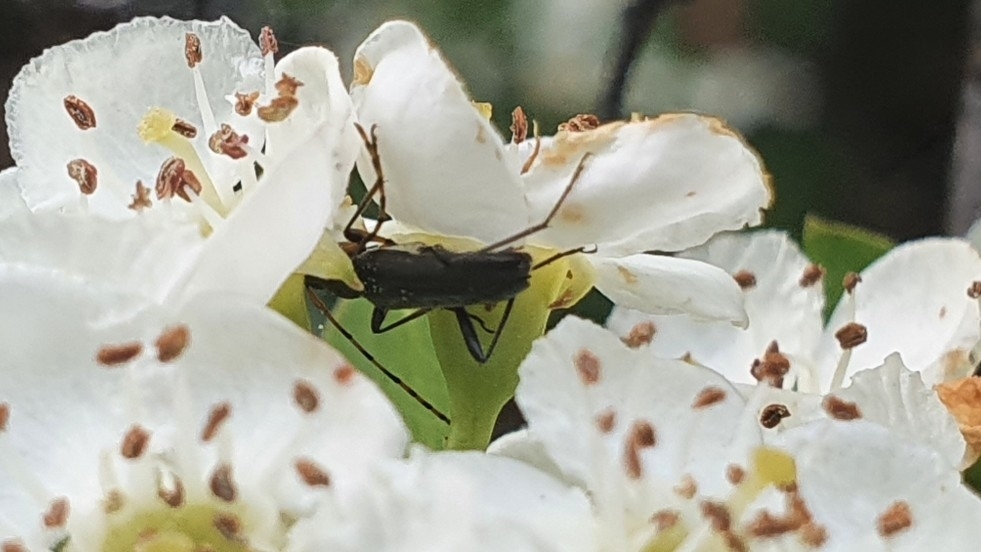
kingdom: Animalia
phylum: Arthropoda
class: Insecta
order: Coleoptera
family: Cerambycidae
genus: Grammoptera
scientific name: Grammoptera ruficornis
